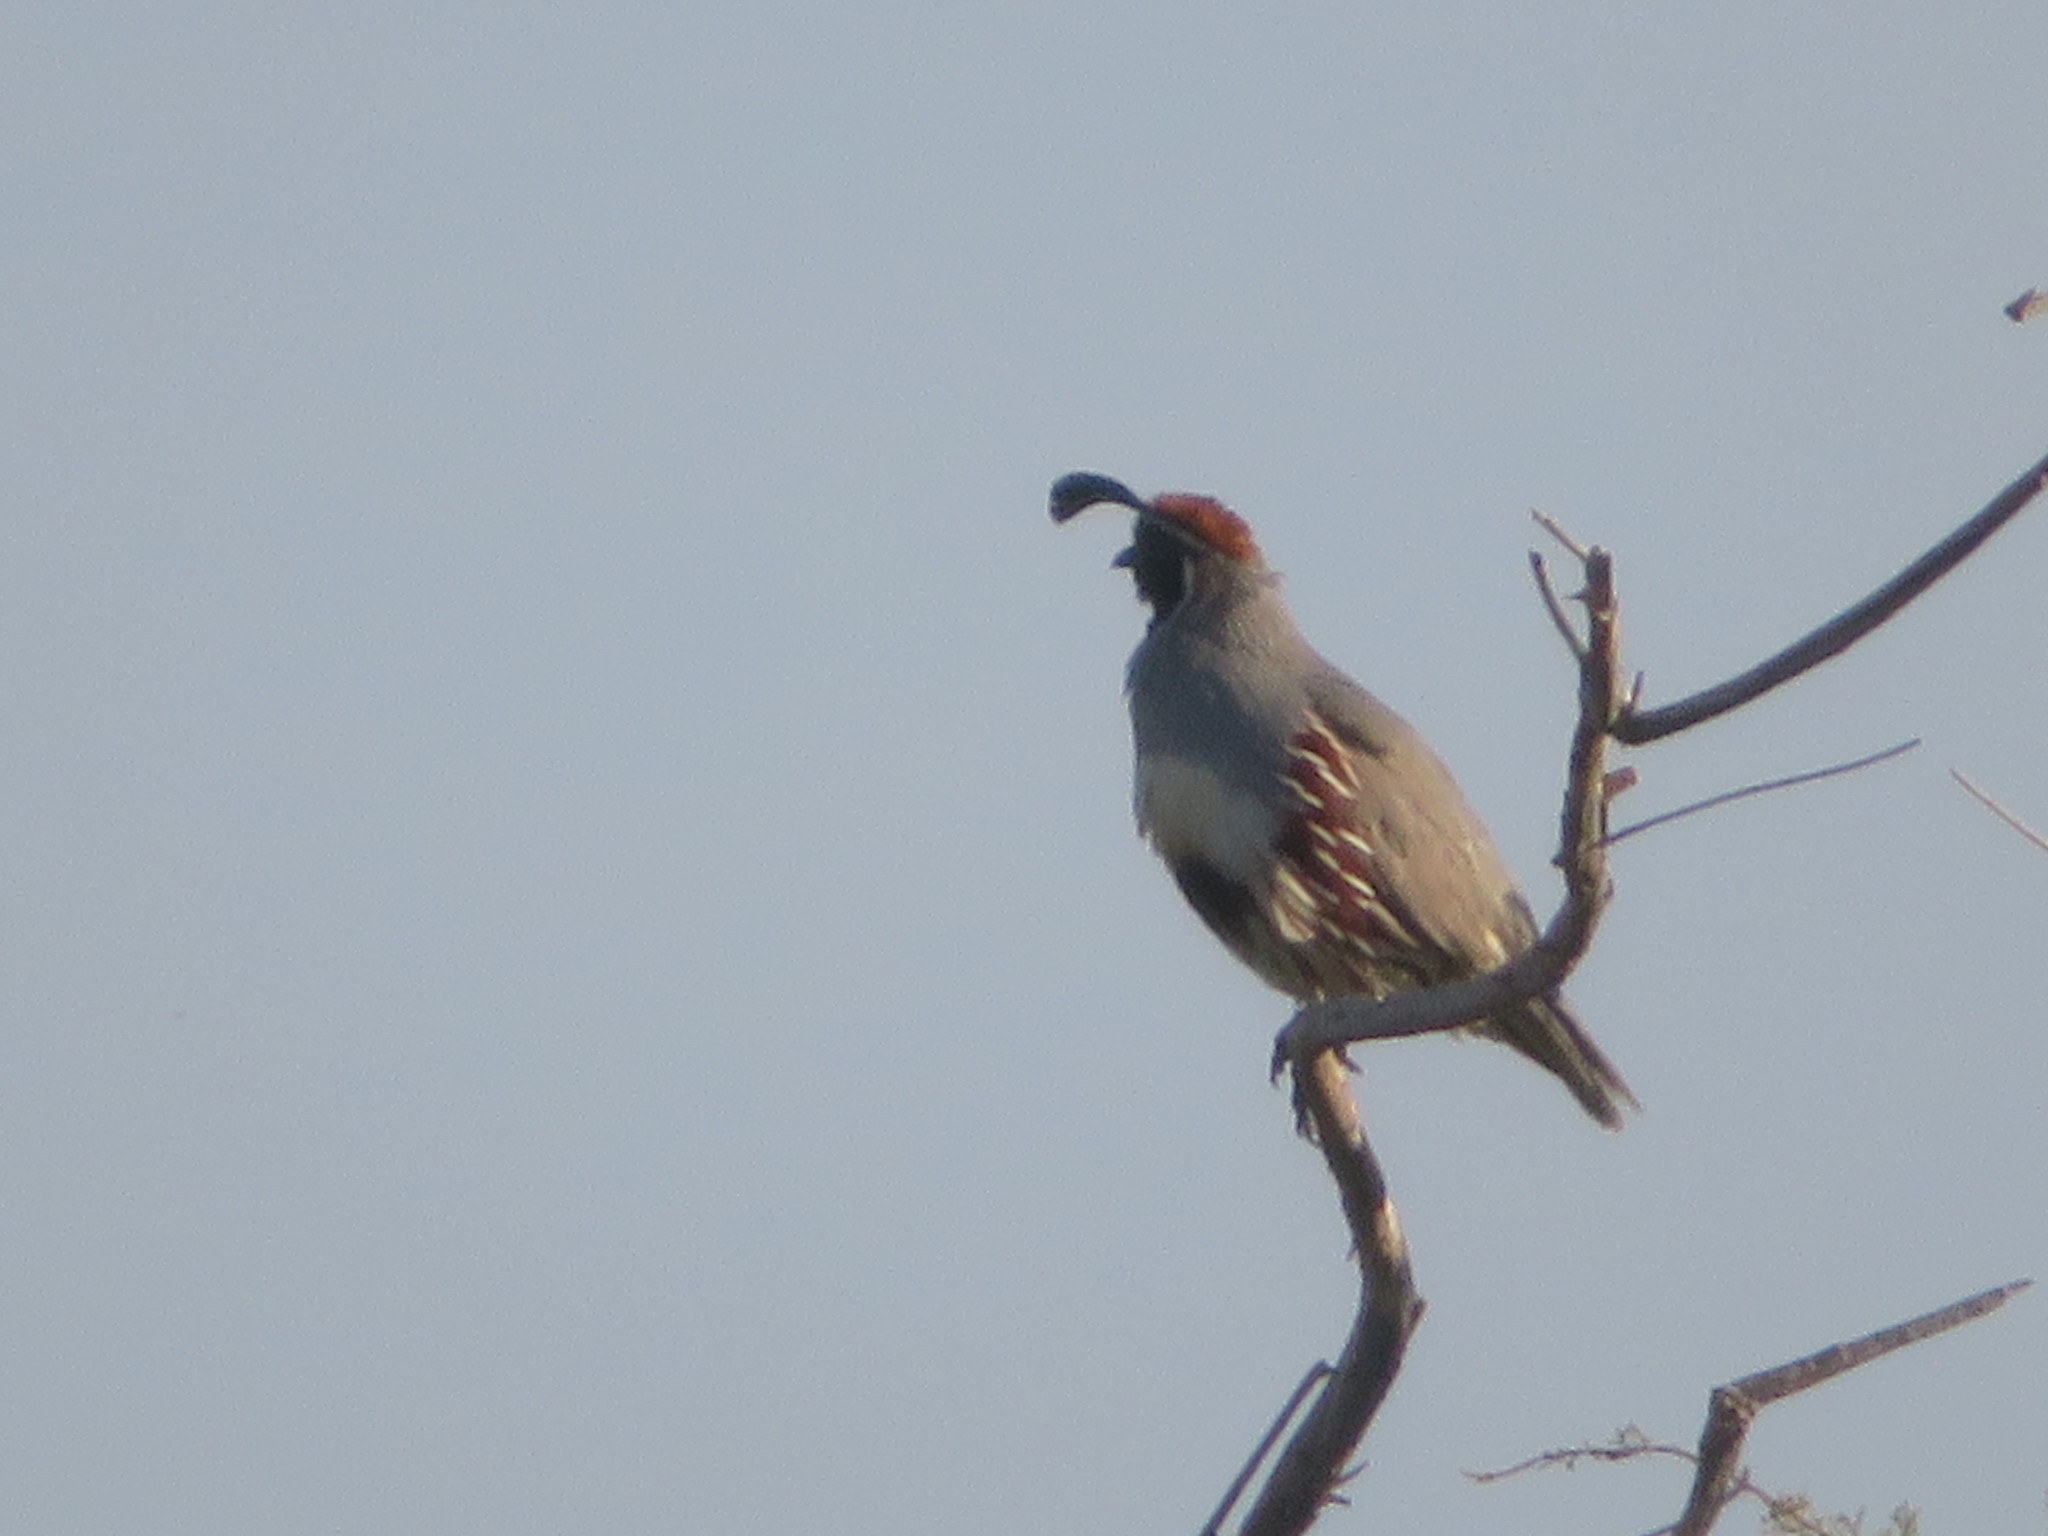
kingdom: Animalia
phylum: Chordata
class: Aves
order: Galliformes
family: Odontophoridae
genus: Callipepla
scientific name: Callipepla gambelii
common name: Gambel's quail
